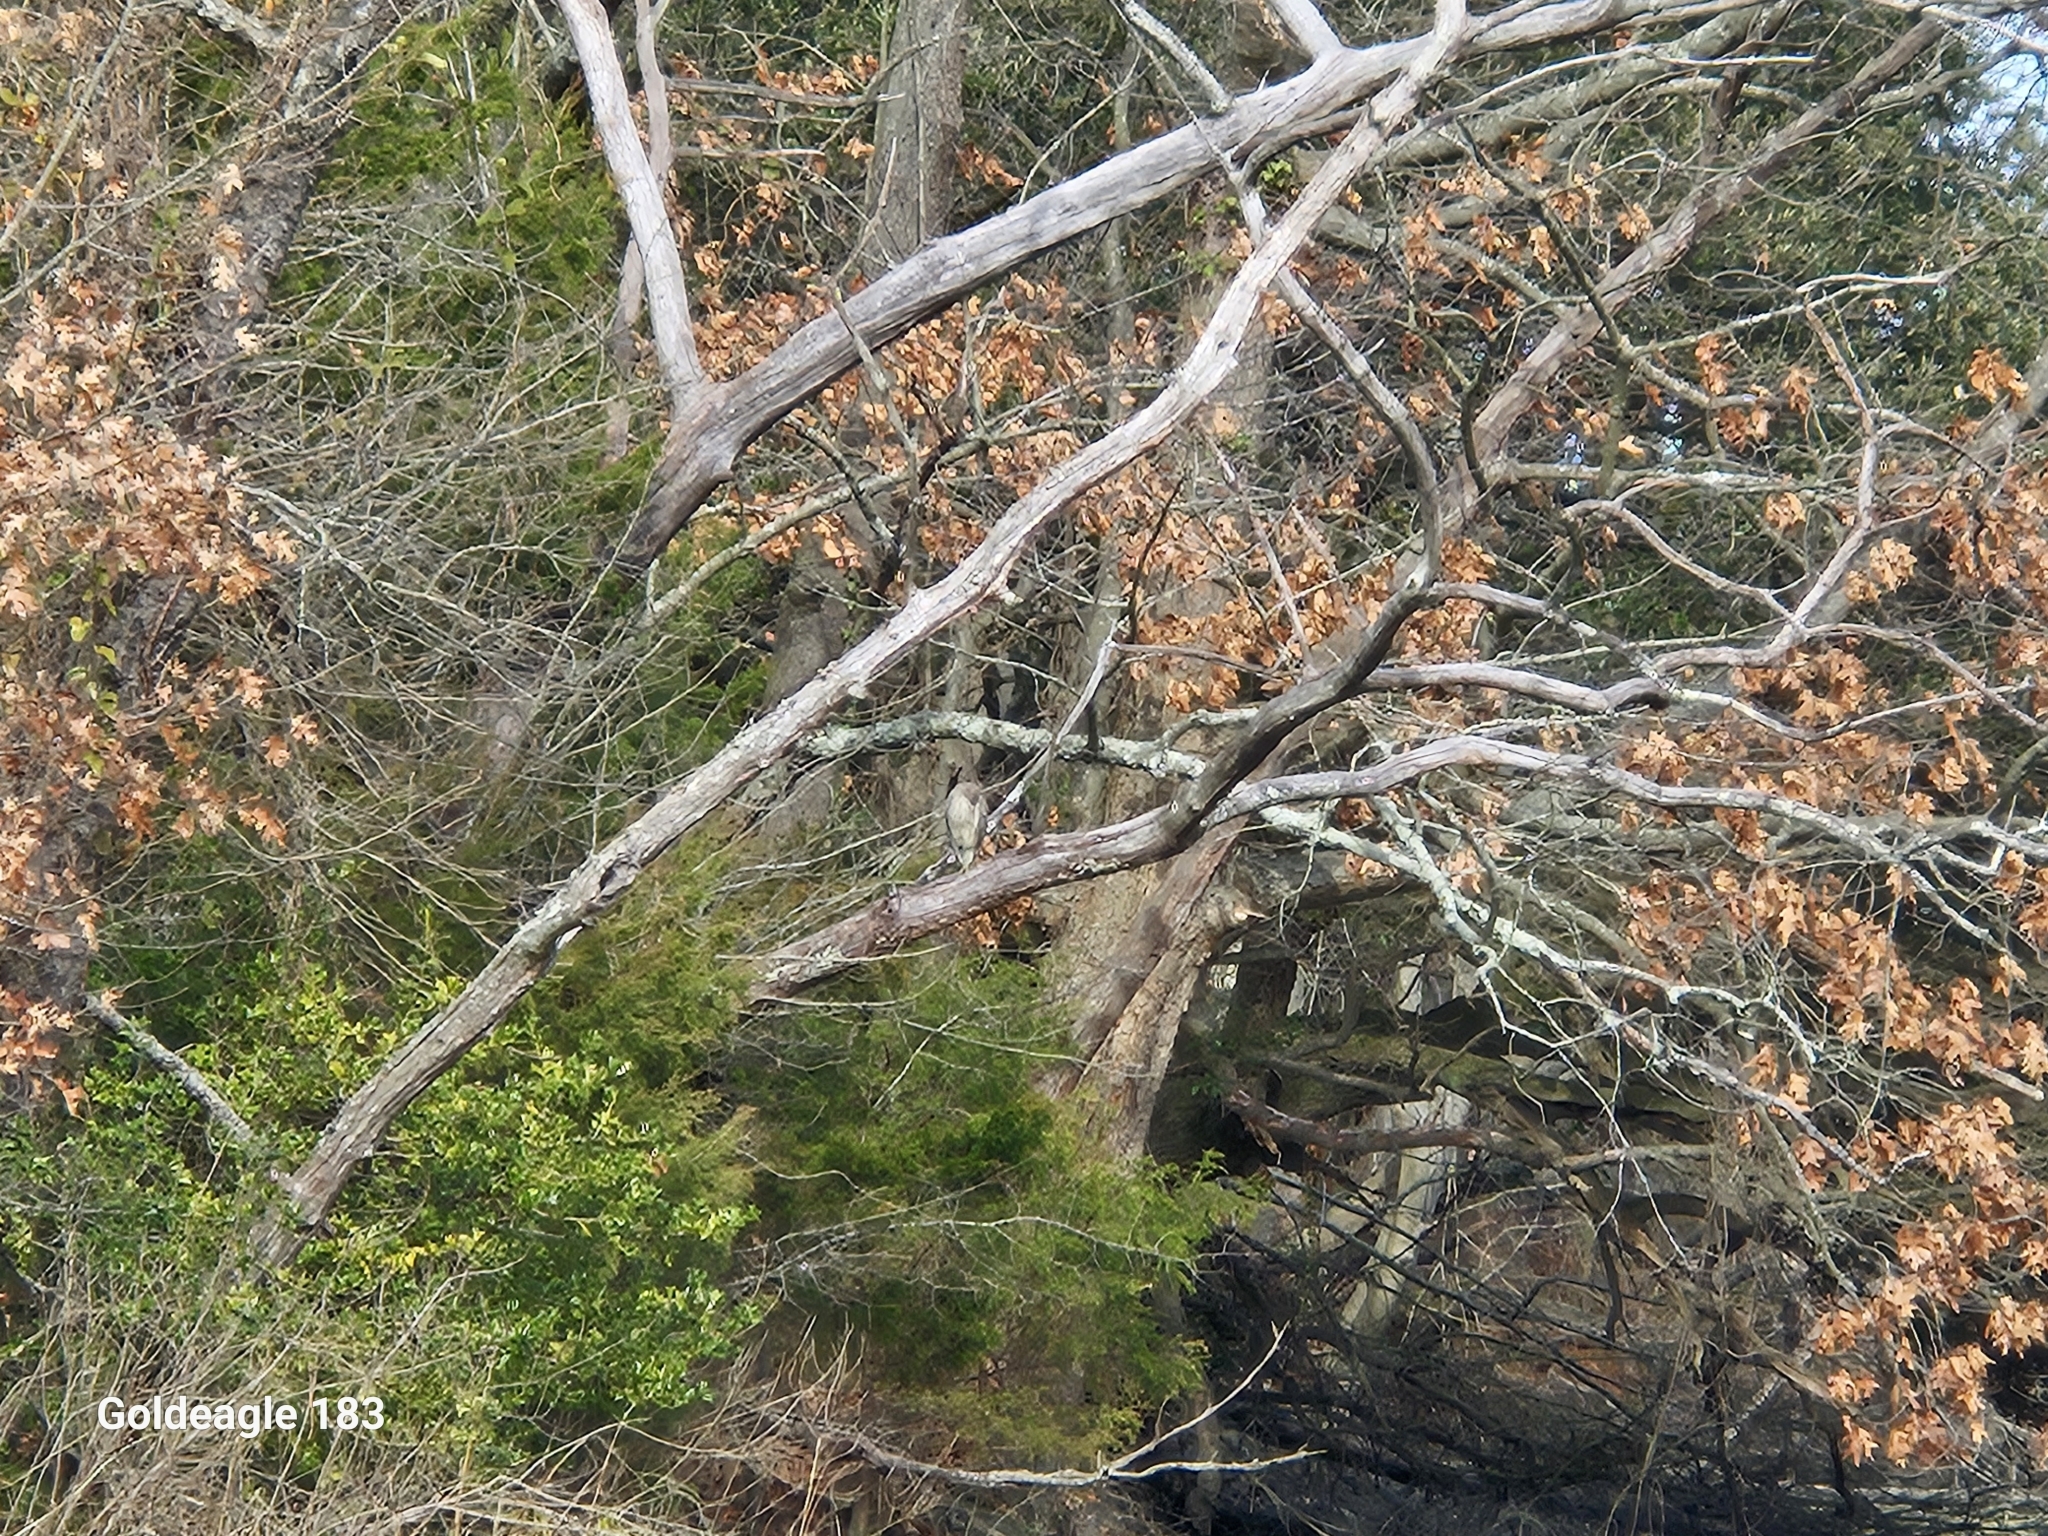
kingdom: Animalia
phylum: Chordata
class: Aves
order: Accipitriformes
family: Accipitridae
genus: Accipiter
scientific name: Accipiter cooperii
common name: Cooper's hawk
